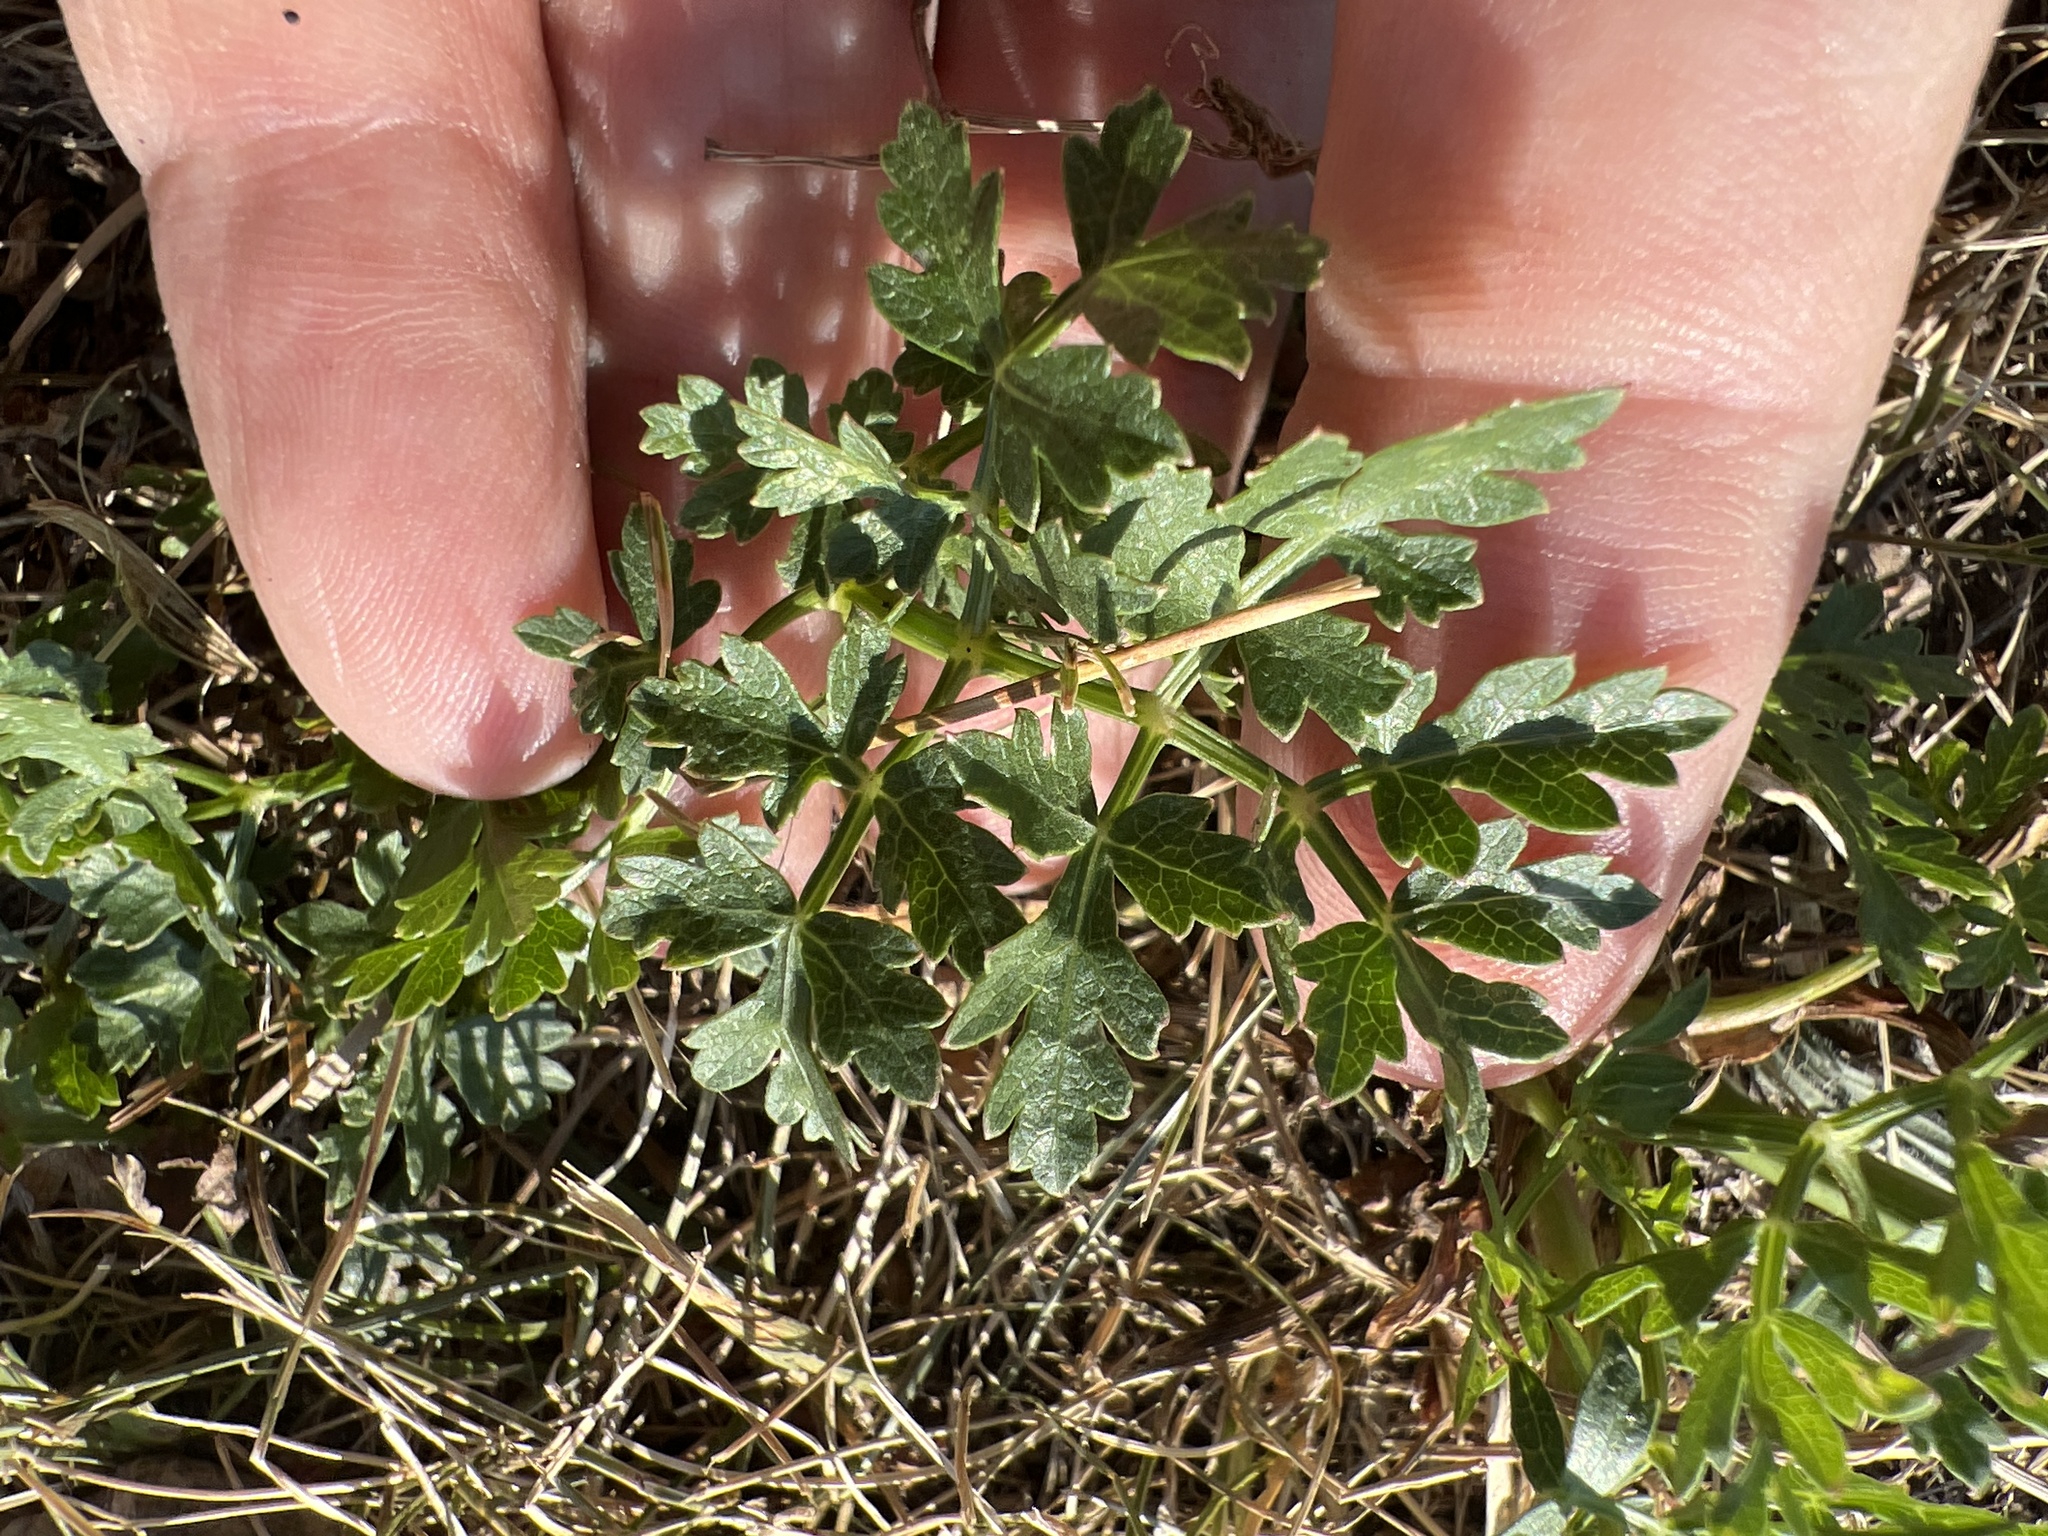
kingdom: Plantae
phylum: Tracheophyta
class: Magnoliopsida
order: Apiales
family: Apiaceae
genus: Oreoselinum
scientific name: Oreoselinum nigrum
